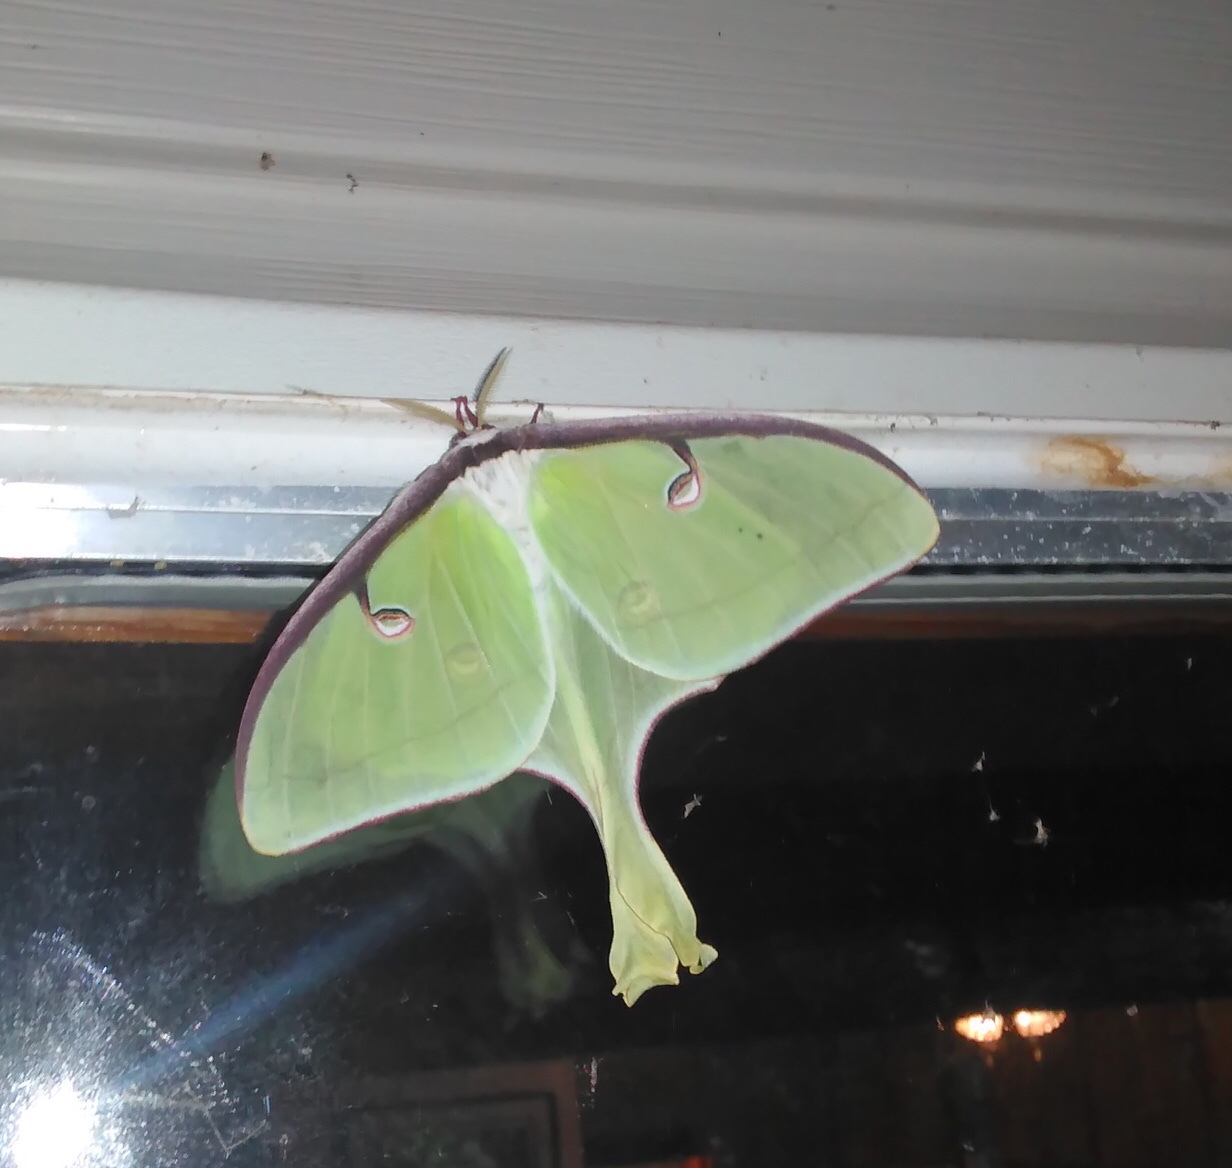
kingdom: Animalia
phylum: Arthropoda
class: Insecta
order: Lepidoptera
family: Saturniidae
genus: Actias
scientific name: Actias luna
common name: Luna moth
